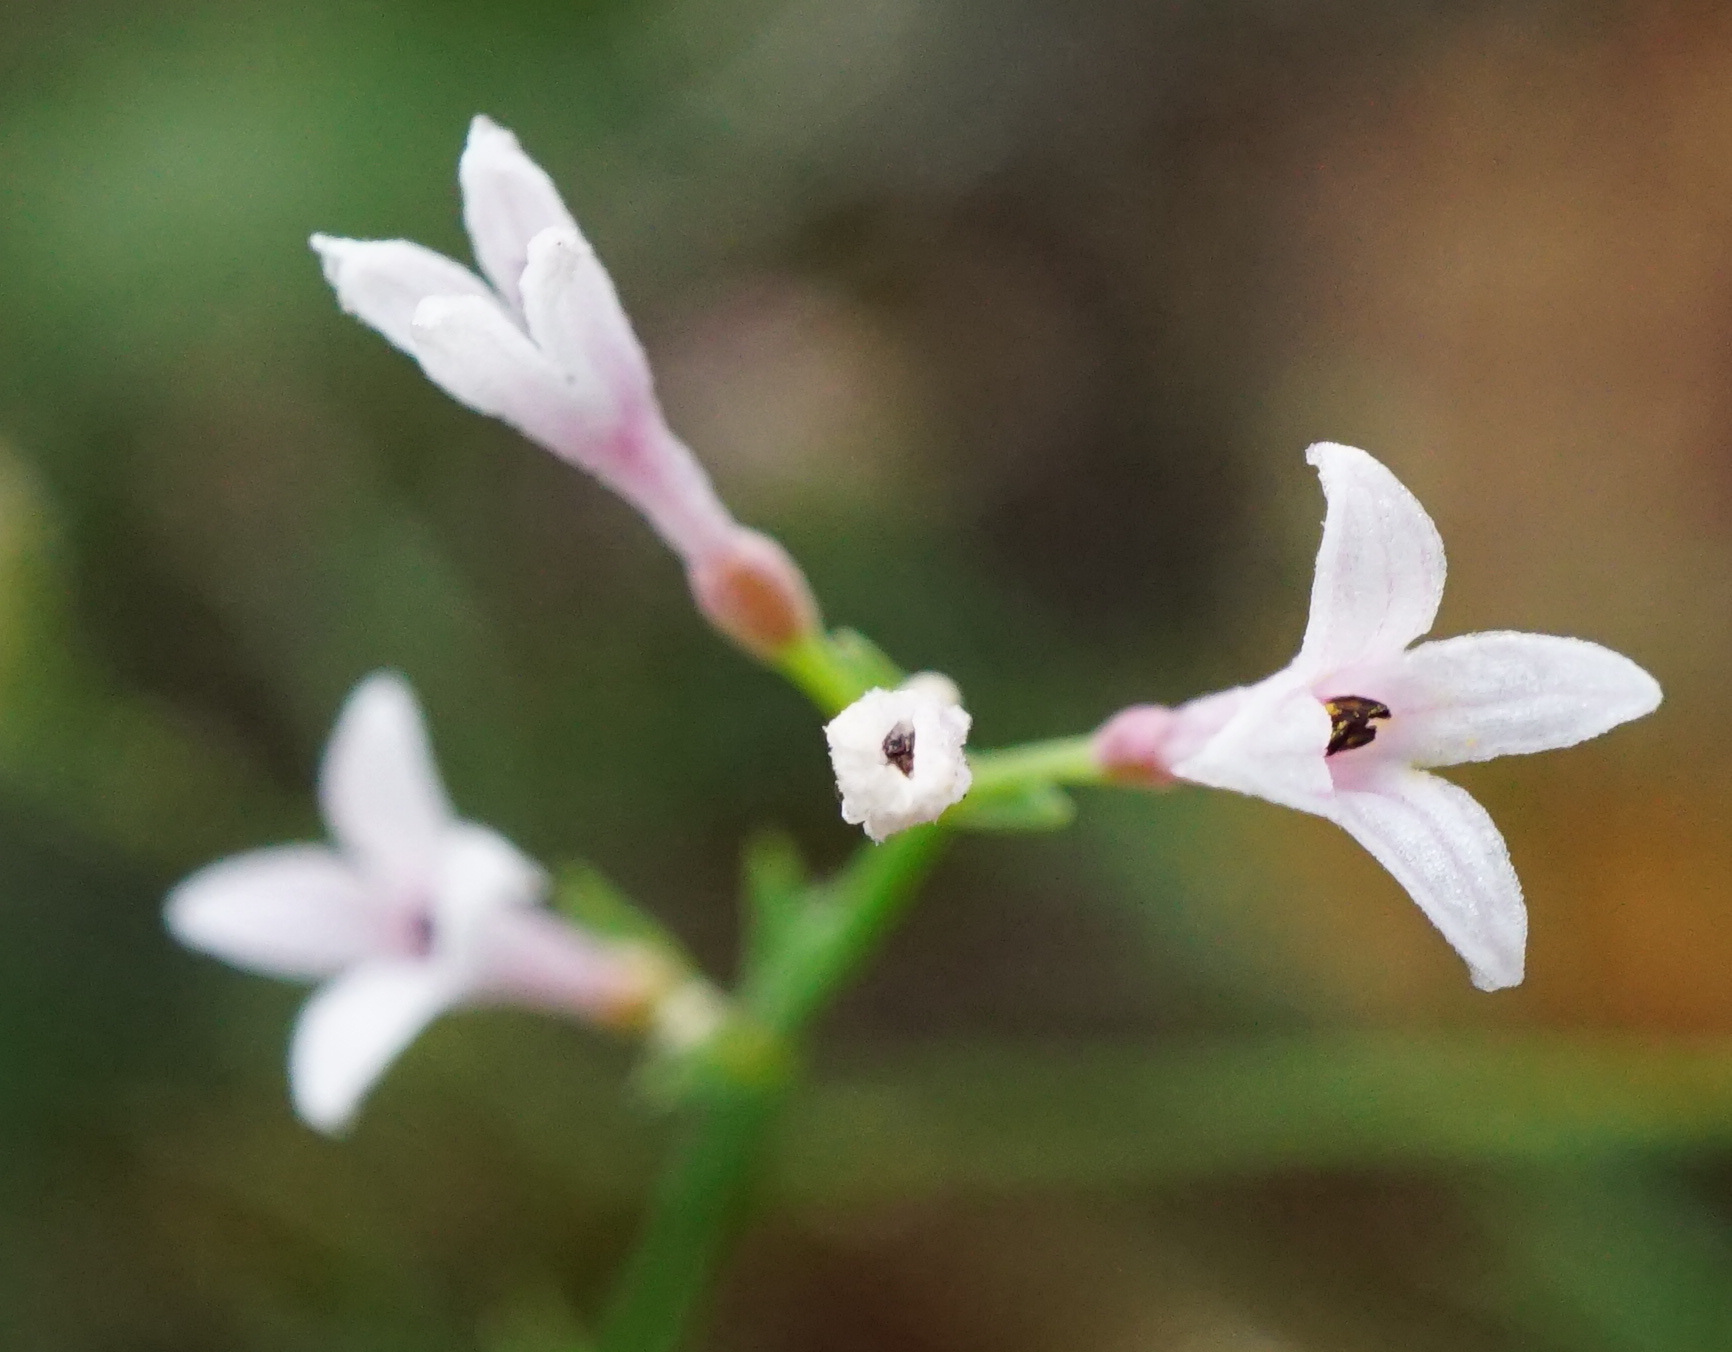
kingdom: Plantae
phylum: Tracheophyta
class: Magnoliopsida
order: Gentianales
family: Rubiaceae
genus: Cynanchica
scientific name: Cynanchica pyrenaica
